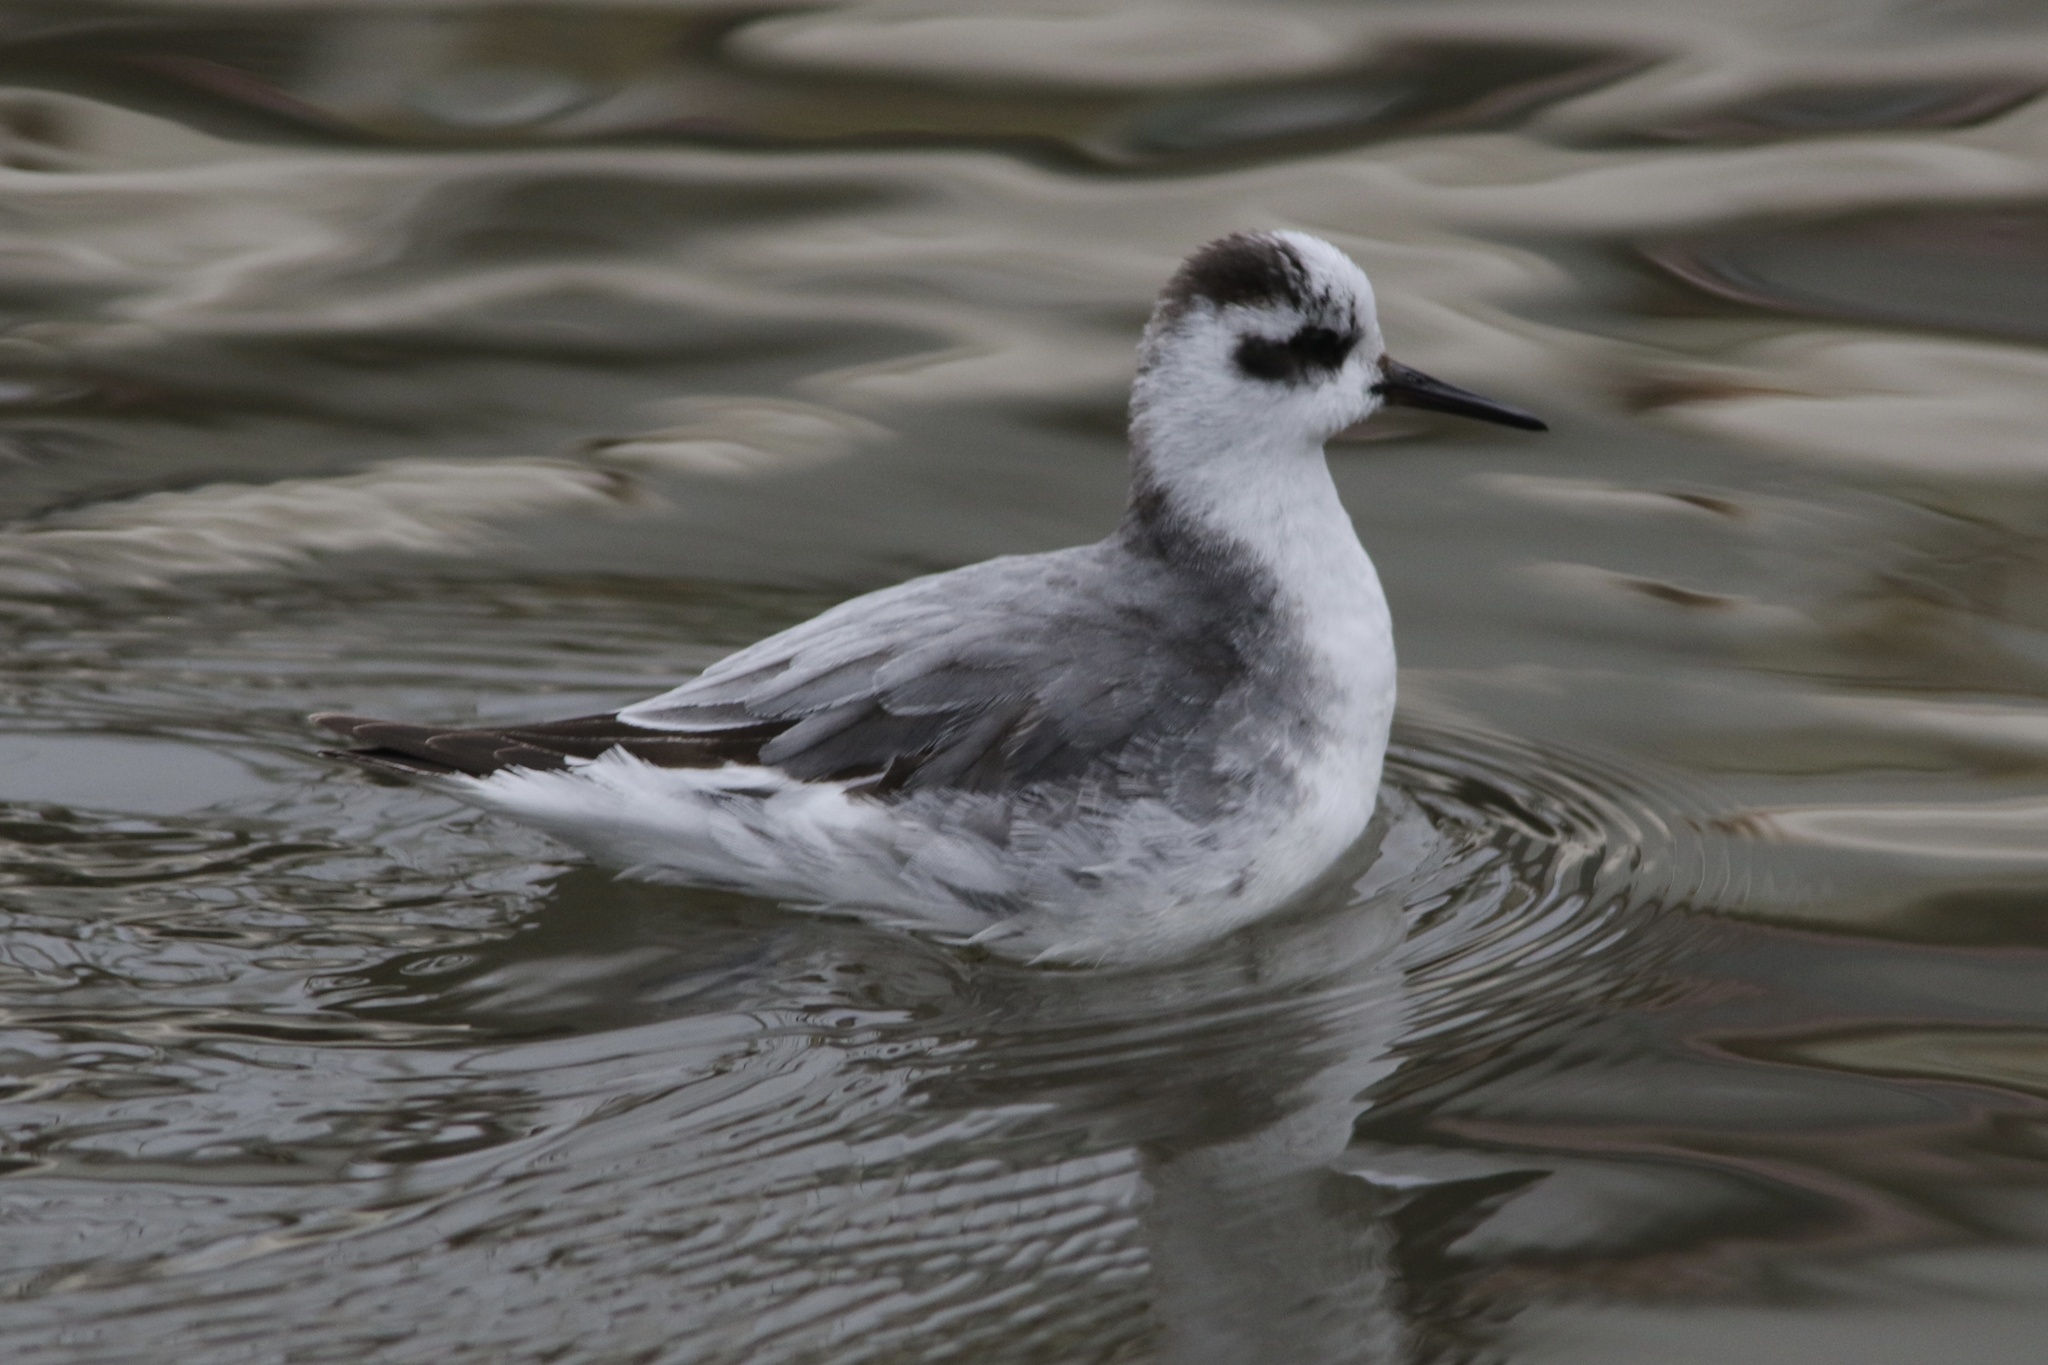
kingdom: Animalia
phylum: Chordata
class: Aves
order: Charadriiformes
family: Scolopacidae
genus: Phalaropus
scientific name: Phalaropus fulicarius
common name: Red phalarope
